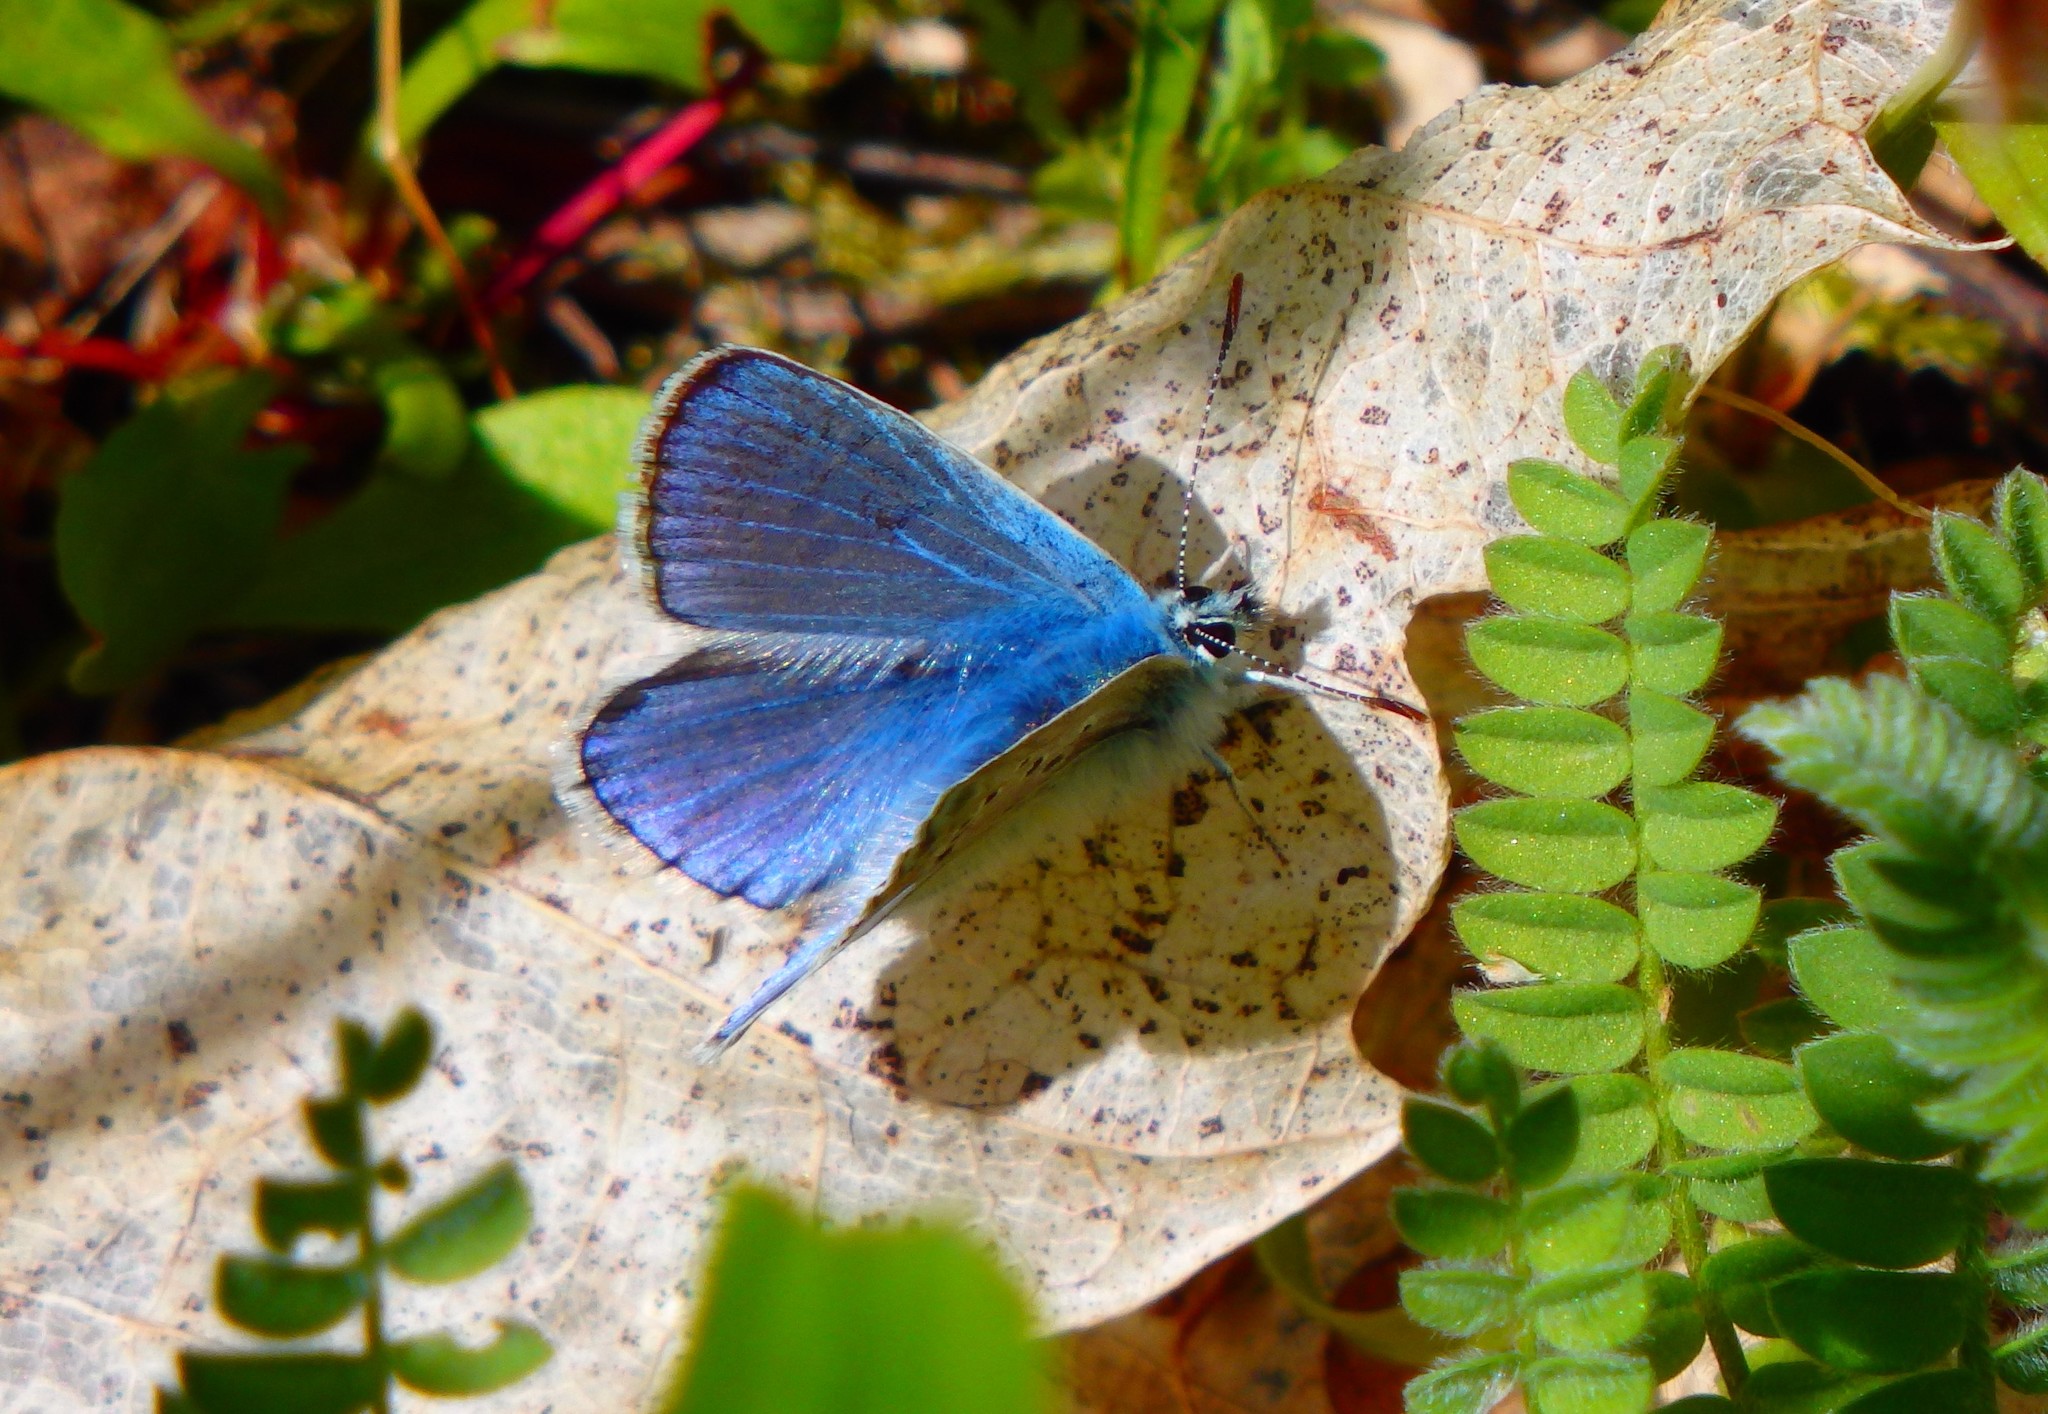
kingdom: Animalia
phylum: Arthropoda
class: Insecta
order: Lepidoptera
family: Lycaenidae
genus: Polyommatus
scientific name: Polyommatus icarus
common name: Common blue
